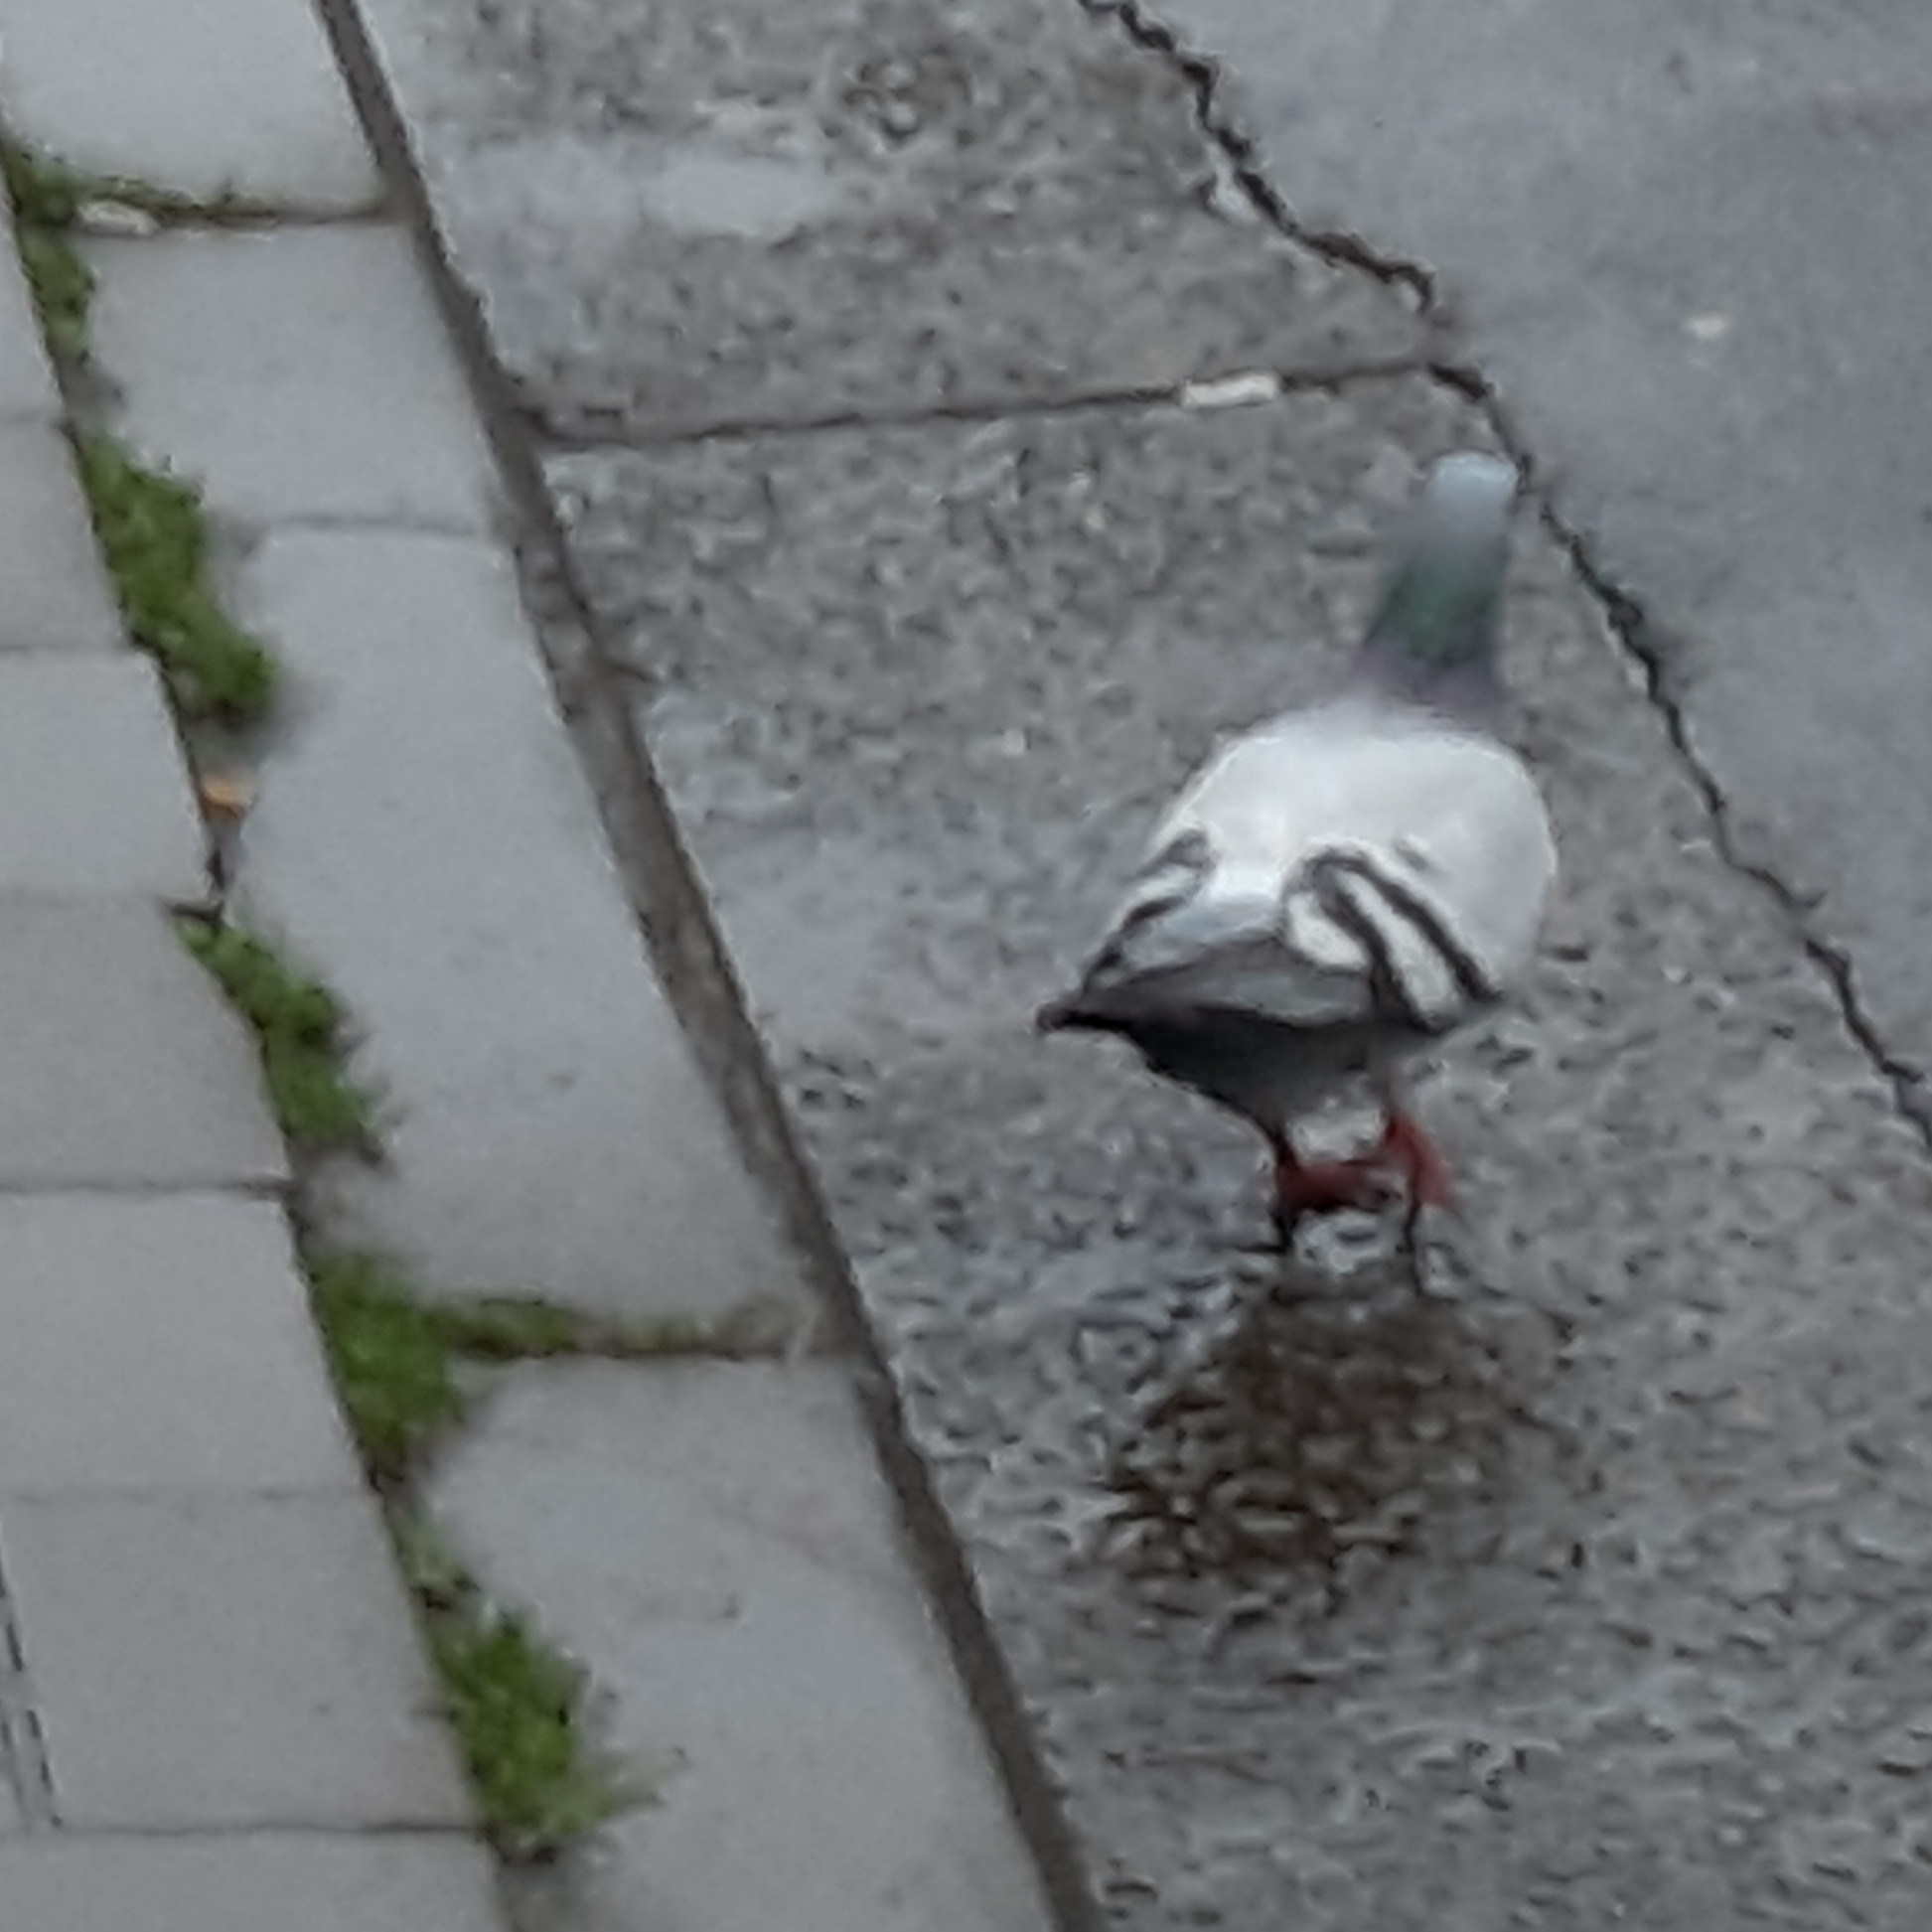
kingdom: Animalia
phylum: Chordata
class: Aves
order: Columbiformes
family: Columbidae
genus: Columba
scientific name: Columba livia
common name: Rock pigeon
